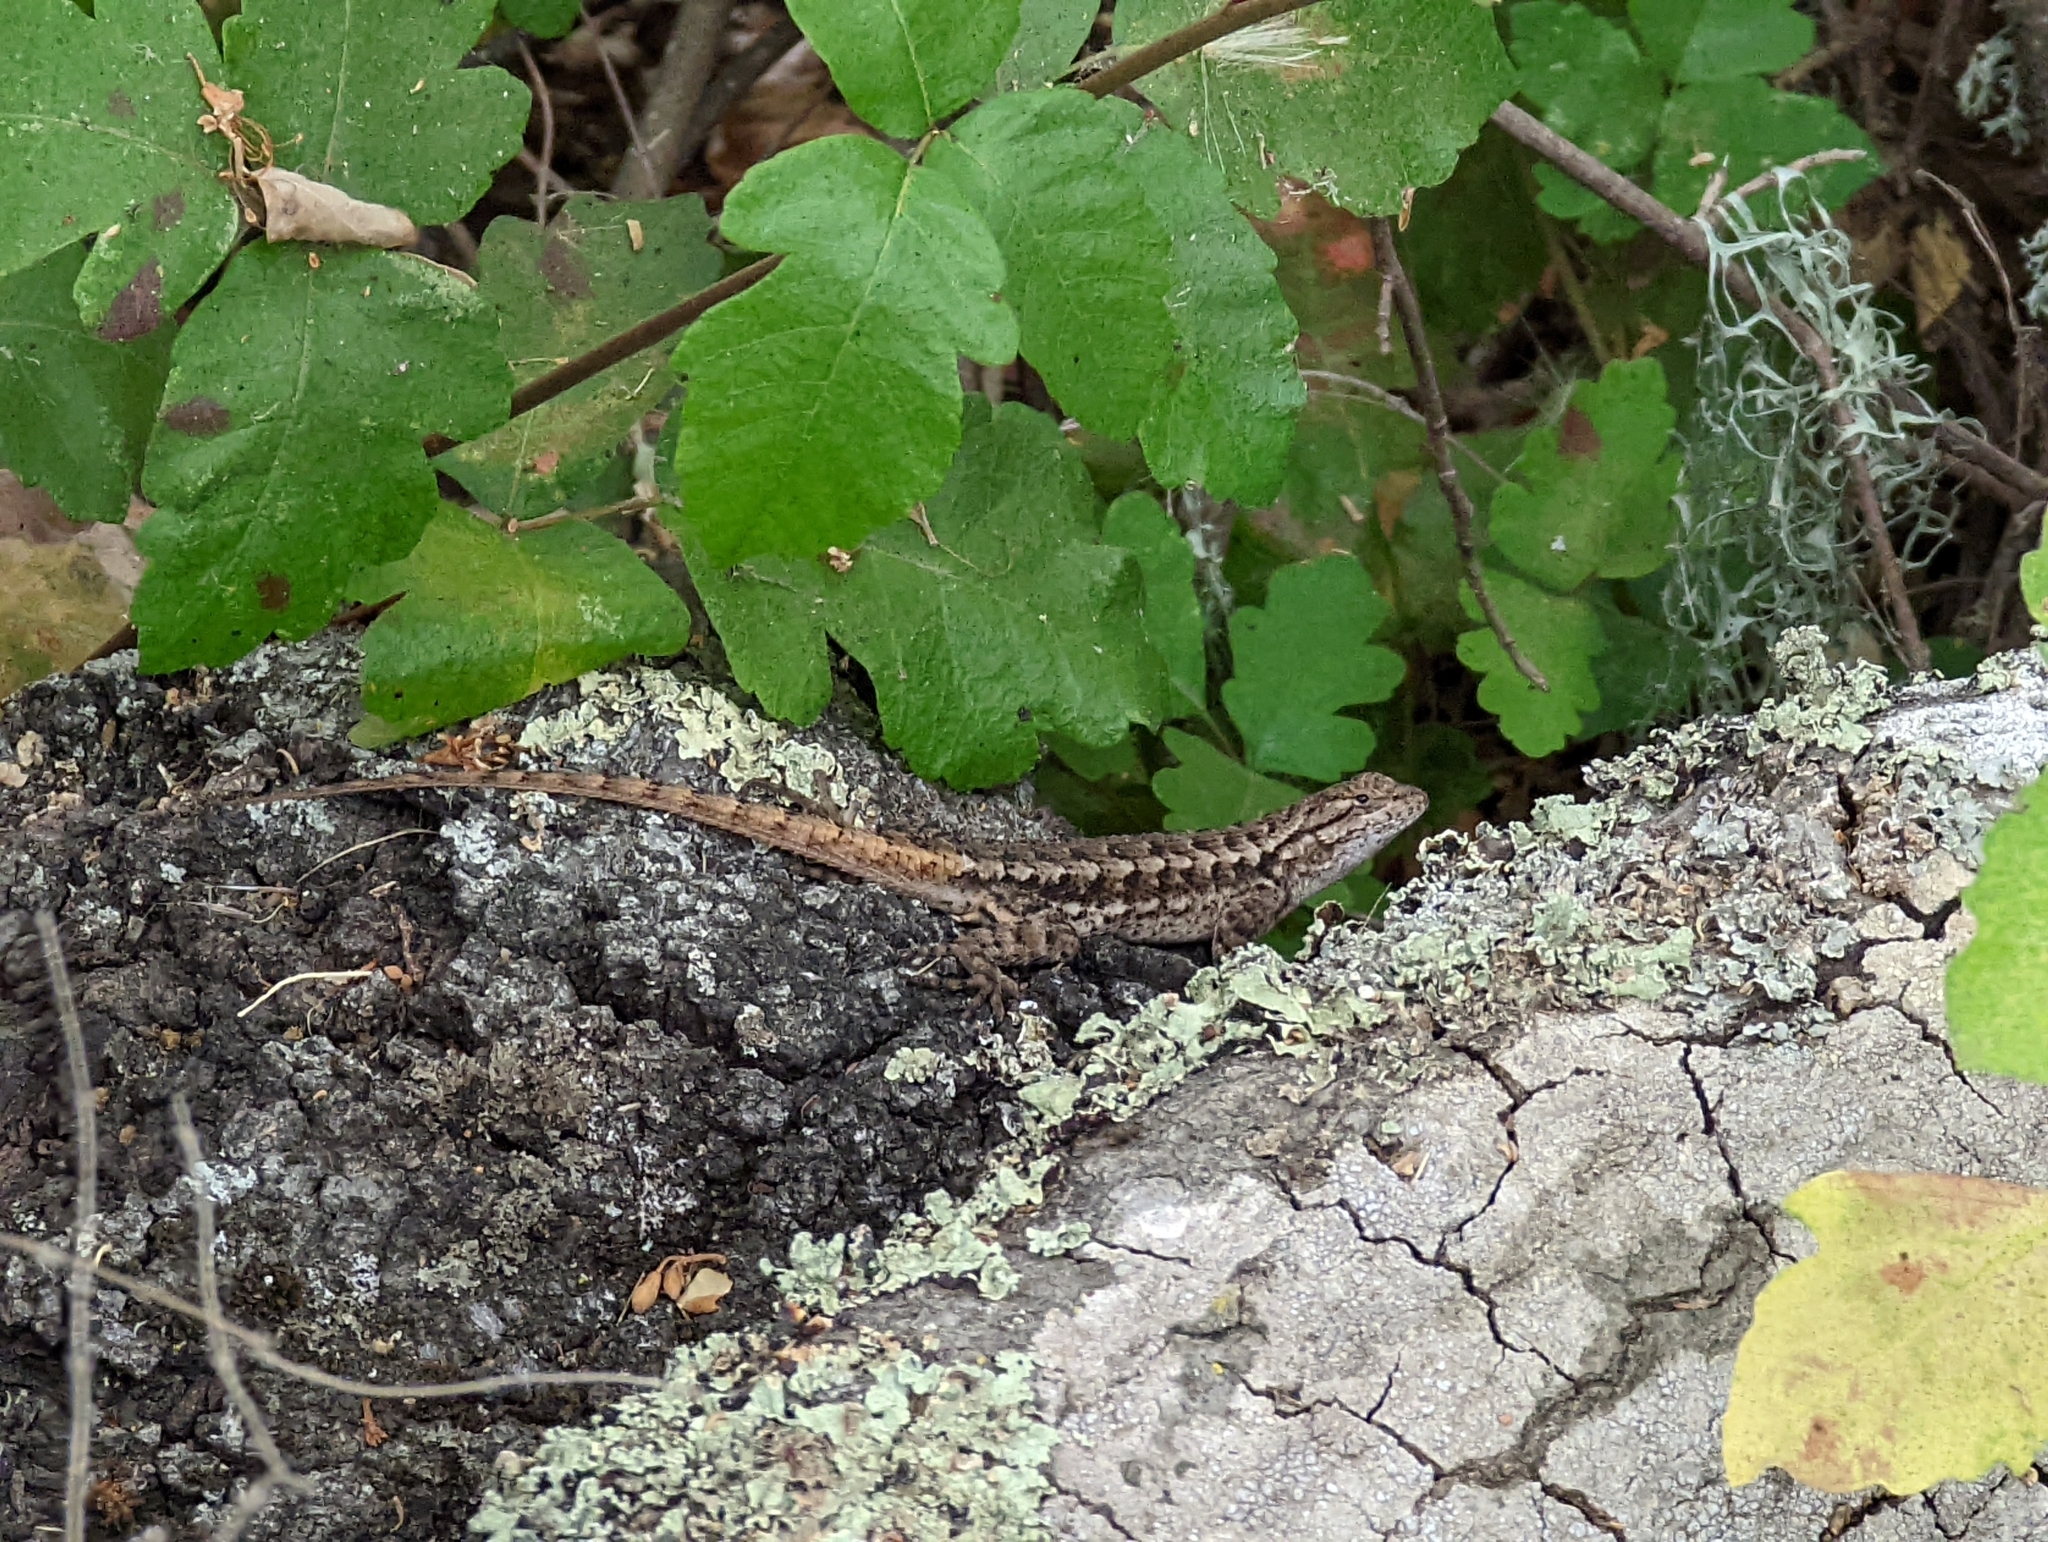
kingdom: Animalia
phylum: Chordata
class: Squamata
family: Phrynosomatidae
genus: Sceloporus
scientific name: Sceloporus occidentalis
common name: Western fence lizard
